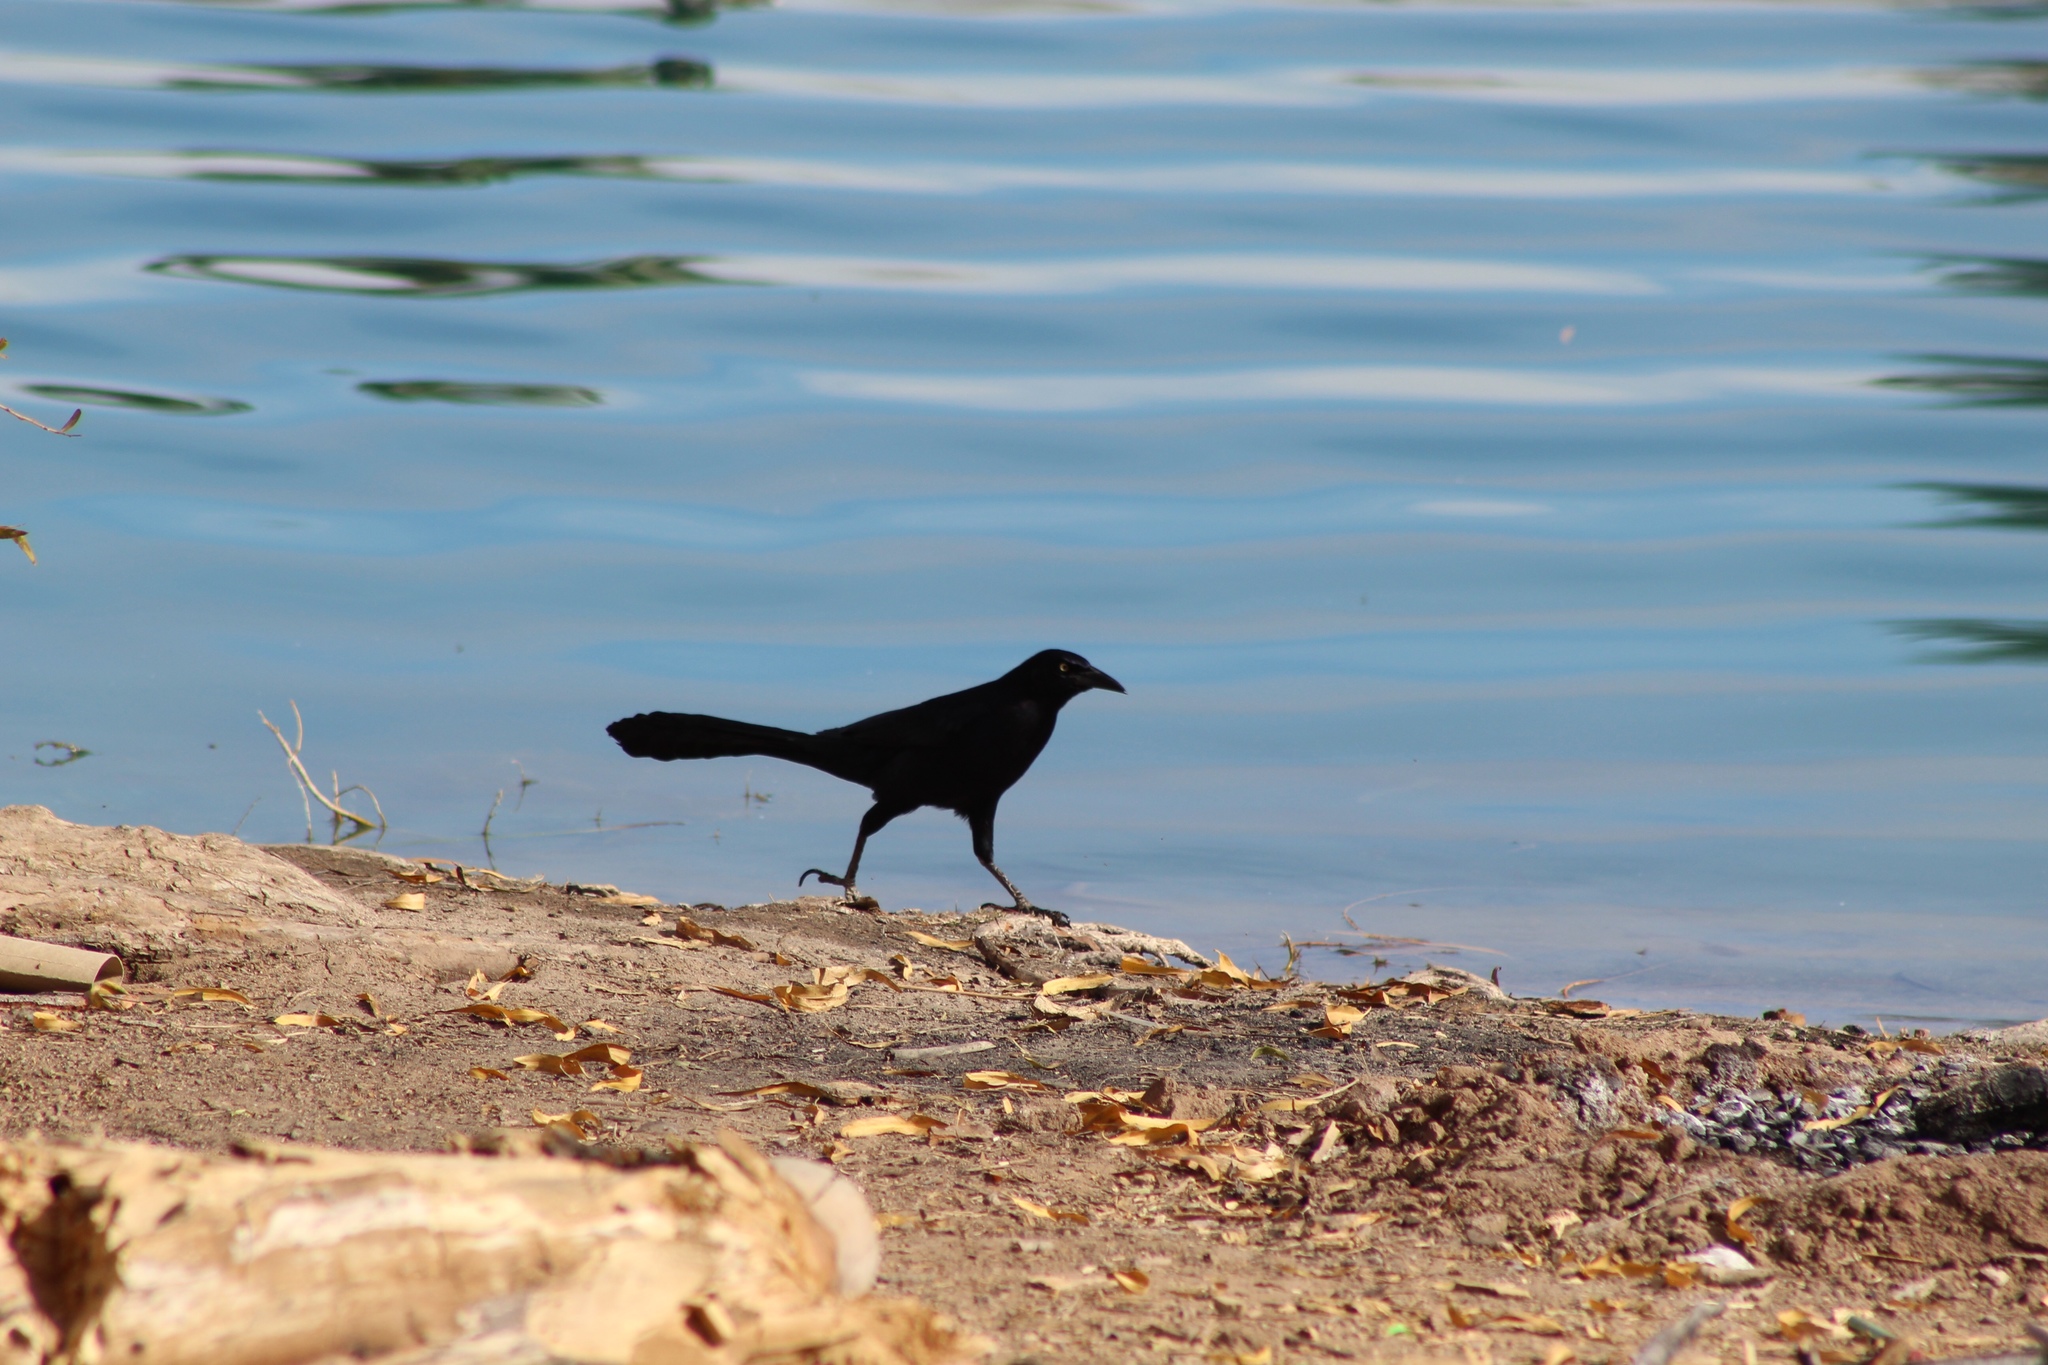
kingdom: Animalia
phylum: Chordata
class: Aves
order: Passeriformes
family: Icteridae
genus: Quiscalus
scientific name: Quiscalus mexicanus
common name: Great-tailed grackle
